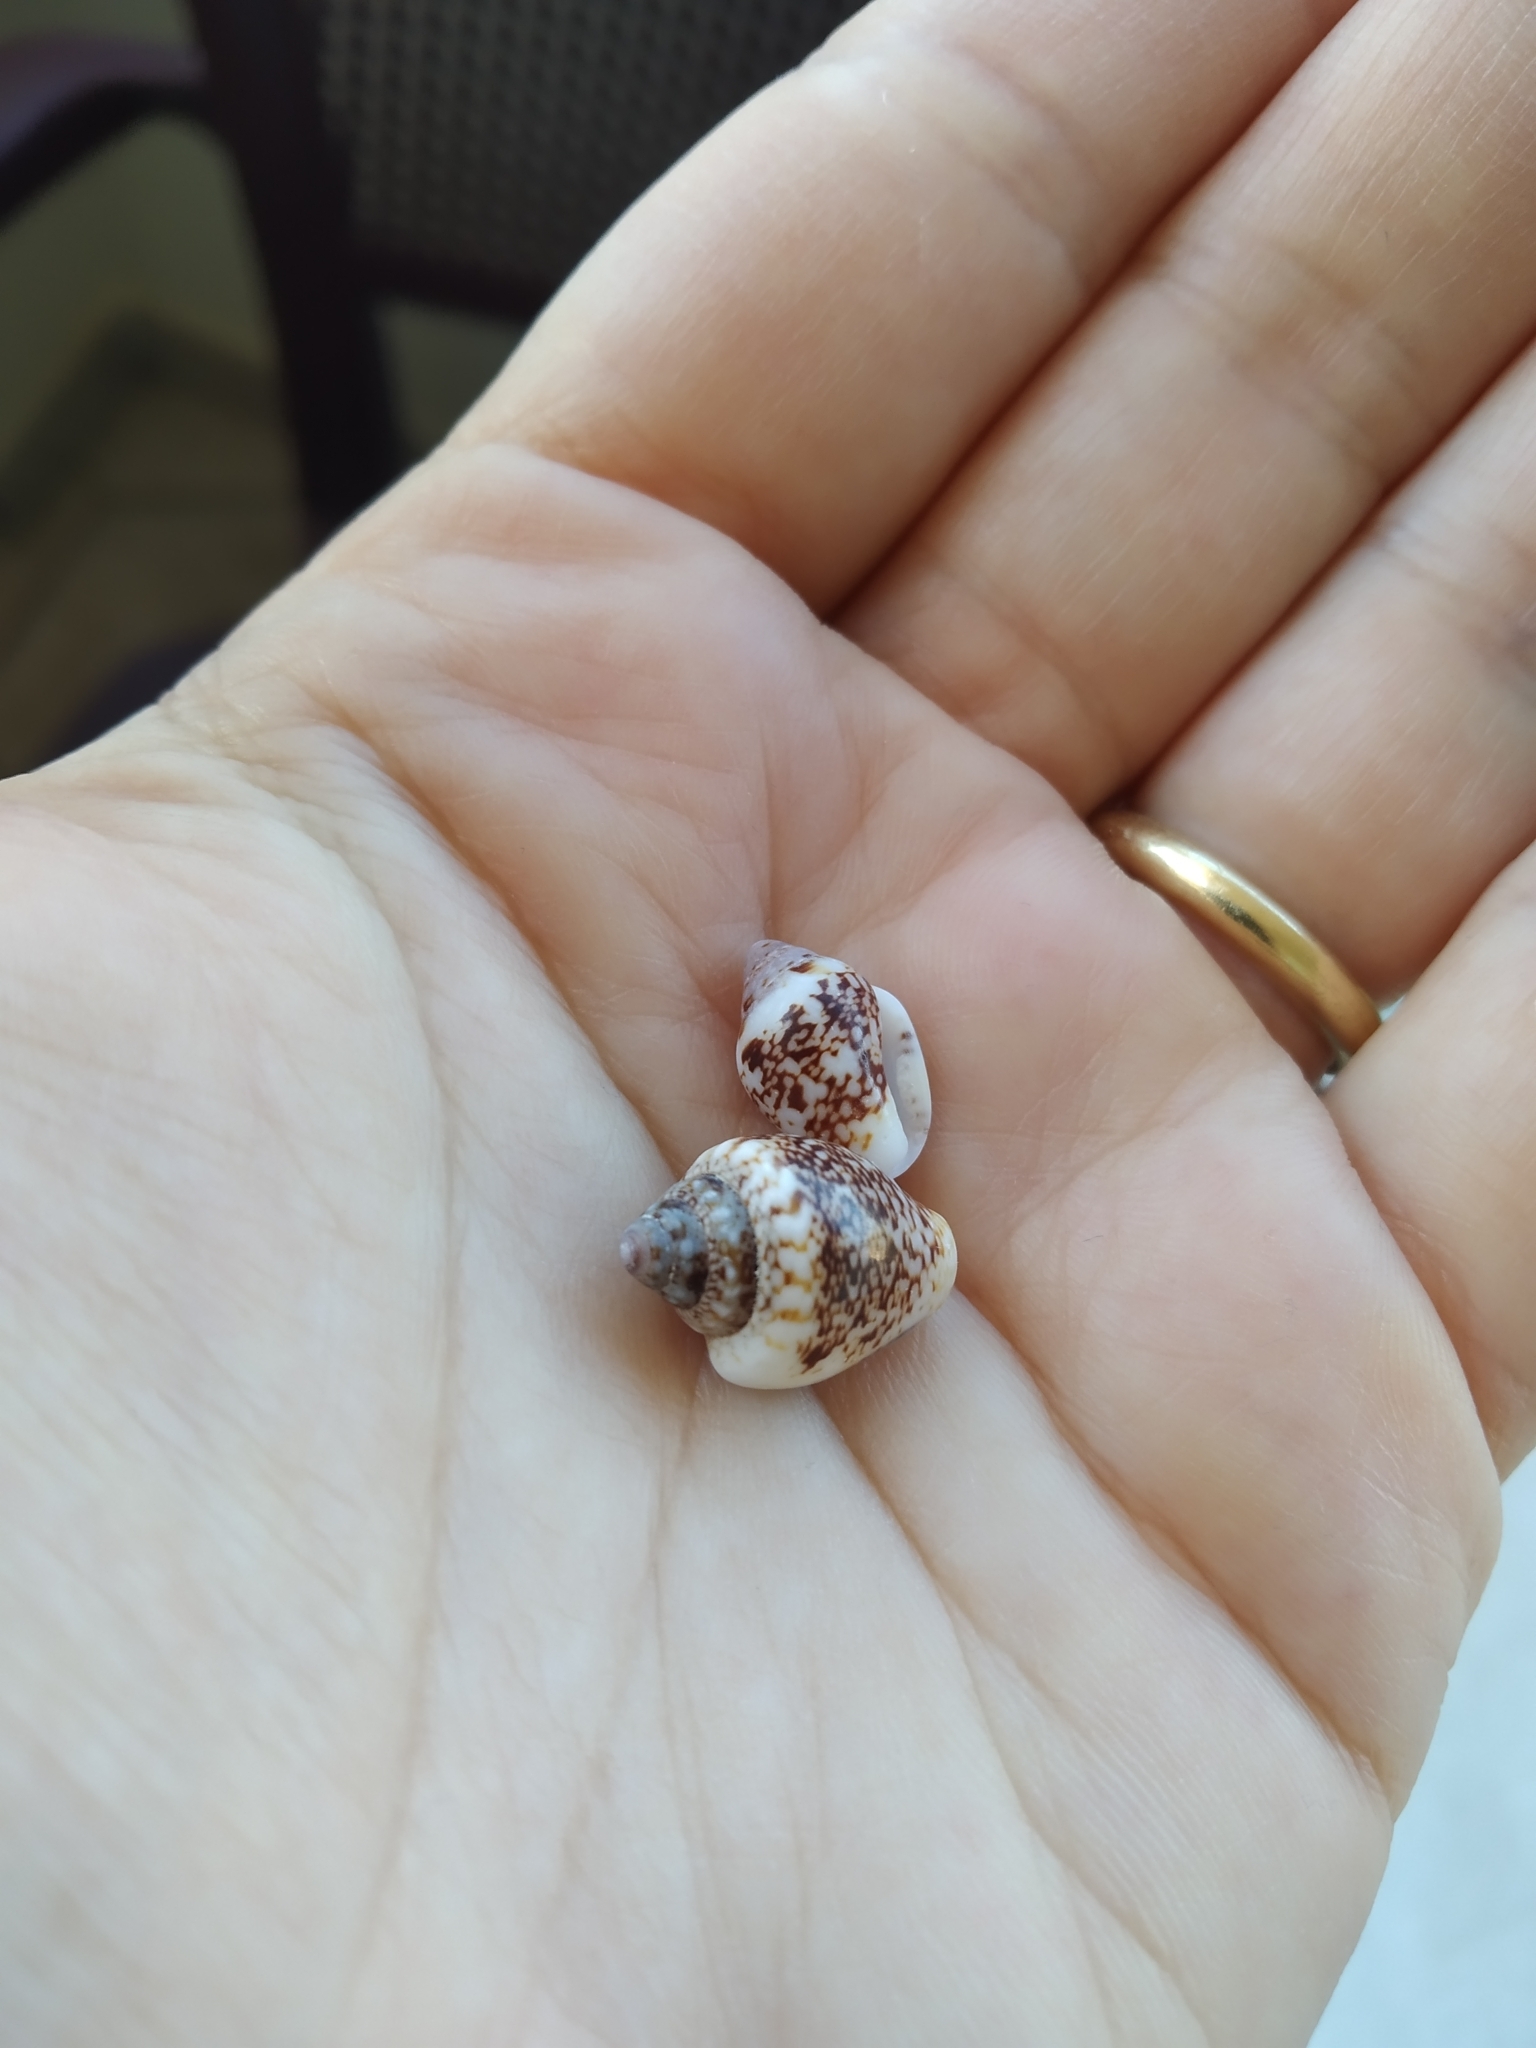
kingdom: Animalia
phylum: Mollusca
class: Gastropoda
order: Neogastropoda
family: Columbellidae
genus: Columbella
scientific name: Columbella rustica
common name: Rustic dove shell
